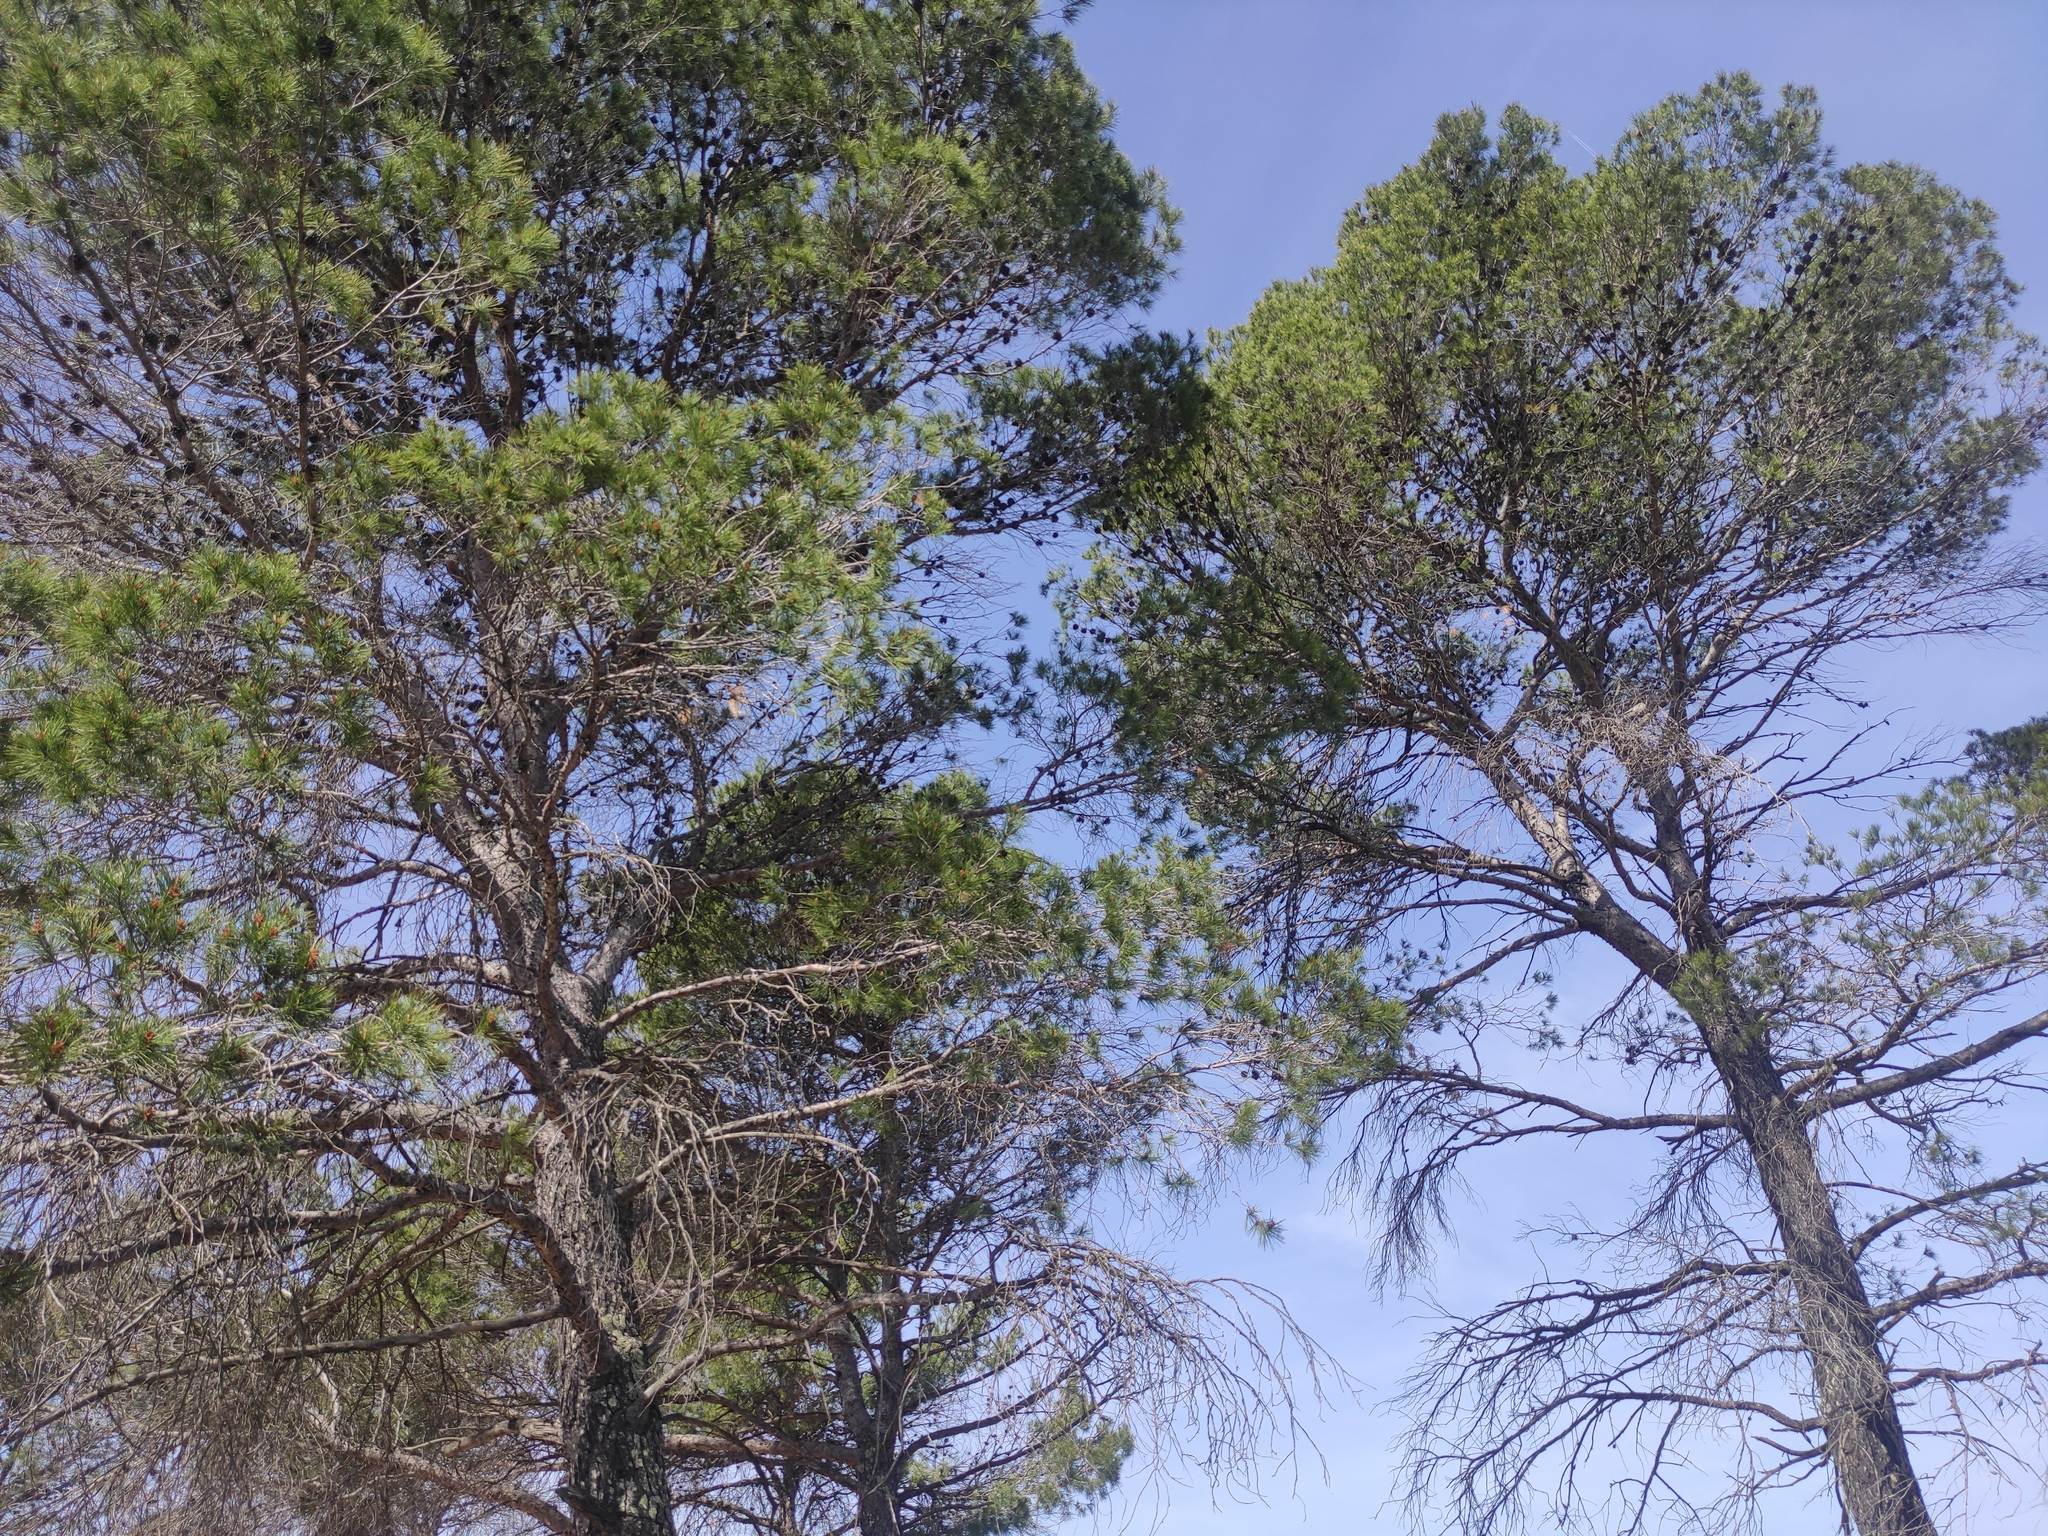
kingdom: Plantae
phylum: Tracheophyta
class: Pinopsida
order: Pinales
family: Pinaceae
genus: Pinus
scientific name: Pinus halepensis
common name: Aleppo pine
